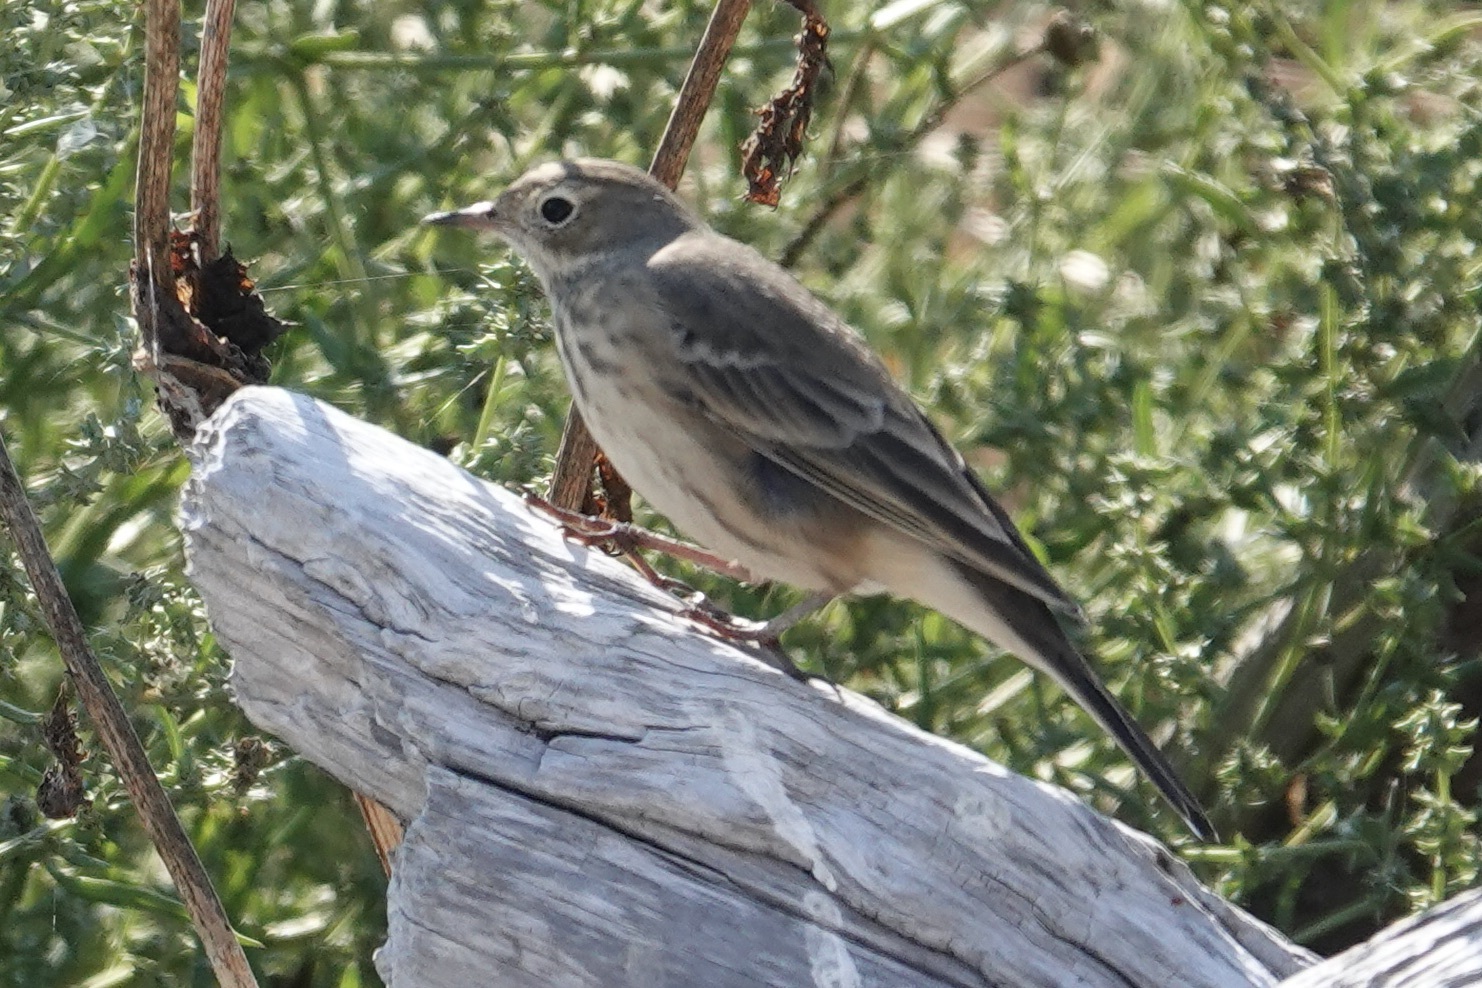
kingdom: Animalia
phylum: Chordata
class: Aves
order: Passeriformes
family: Motacillidae
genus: Anthus
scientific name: Anthus rubescens
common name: Buff-bellied pipit
